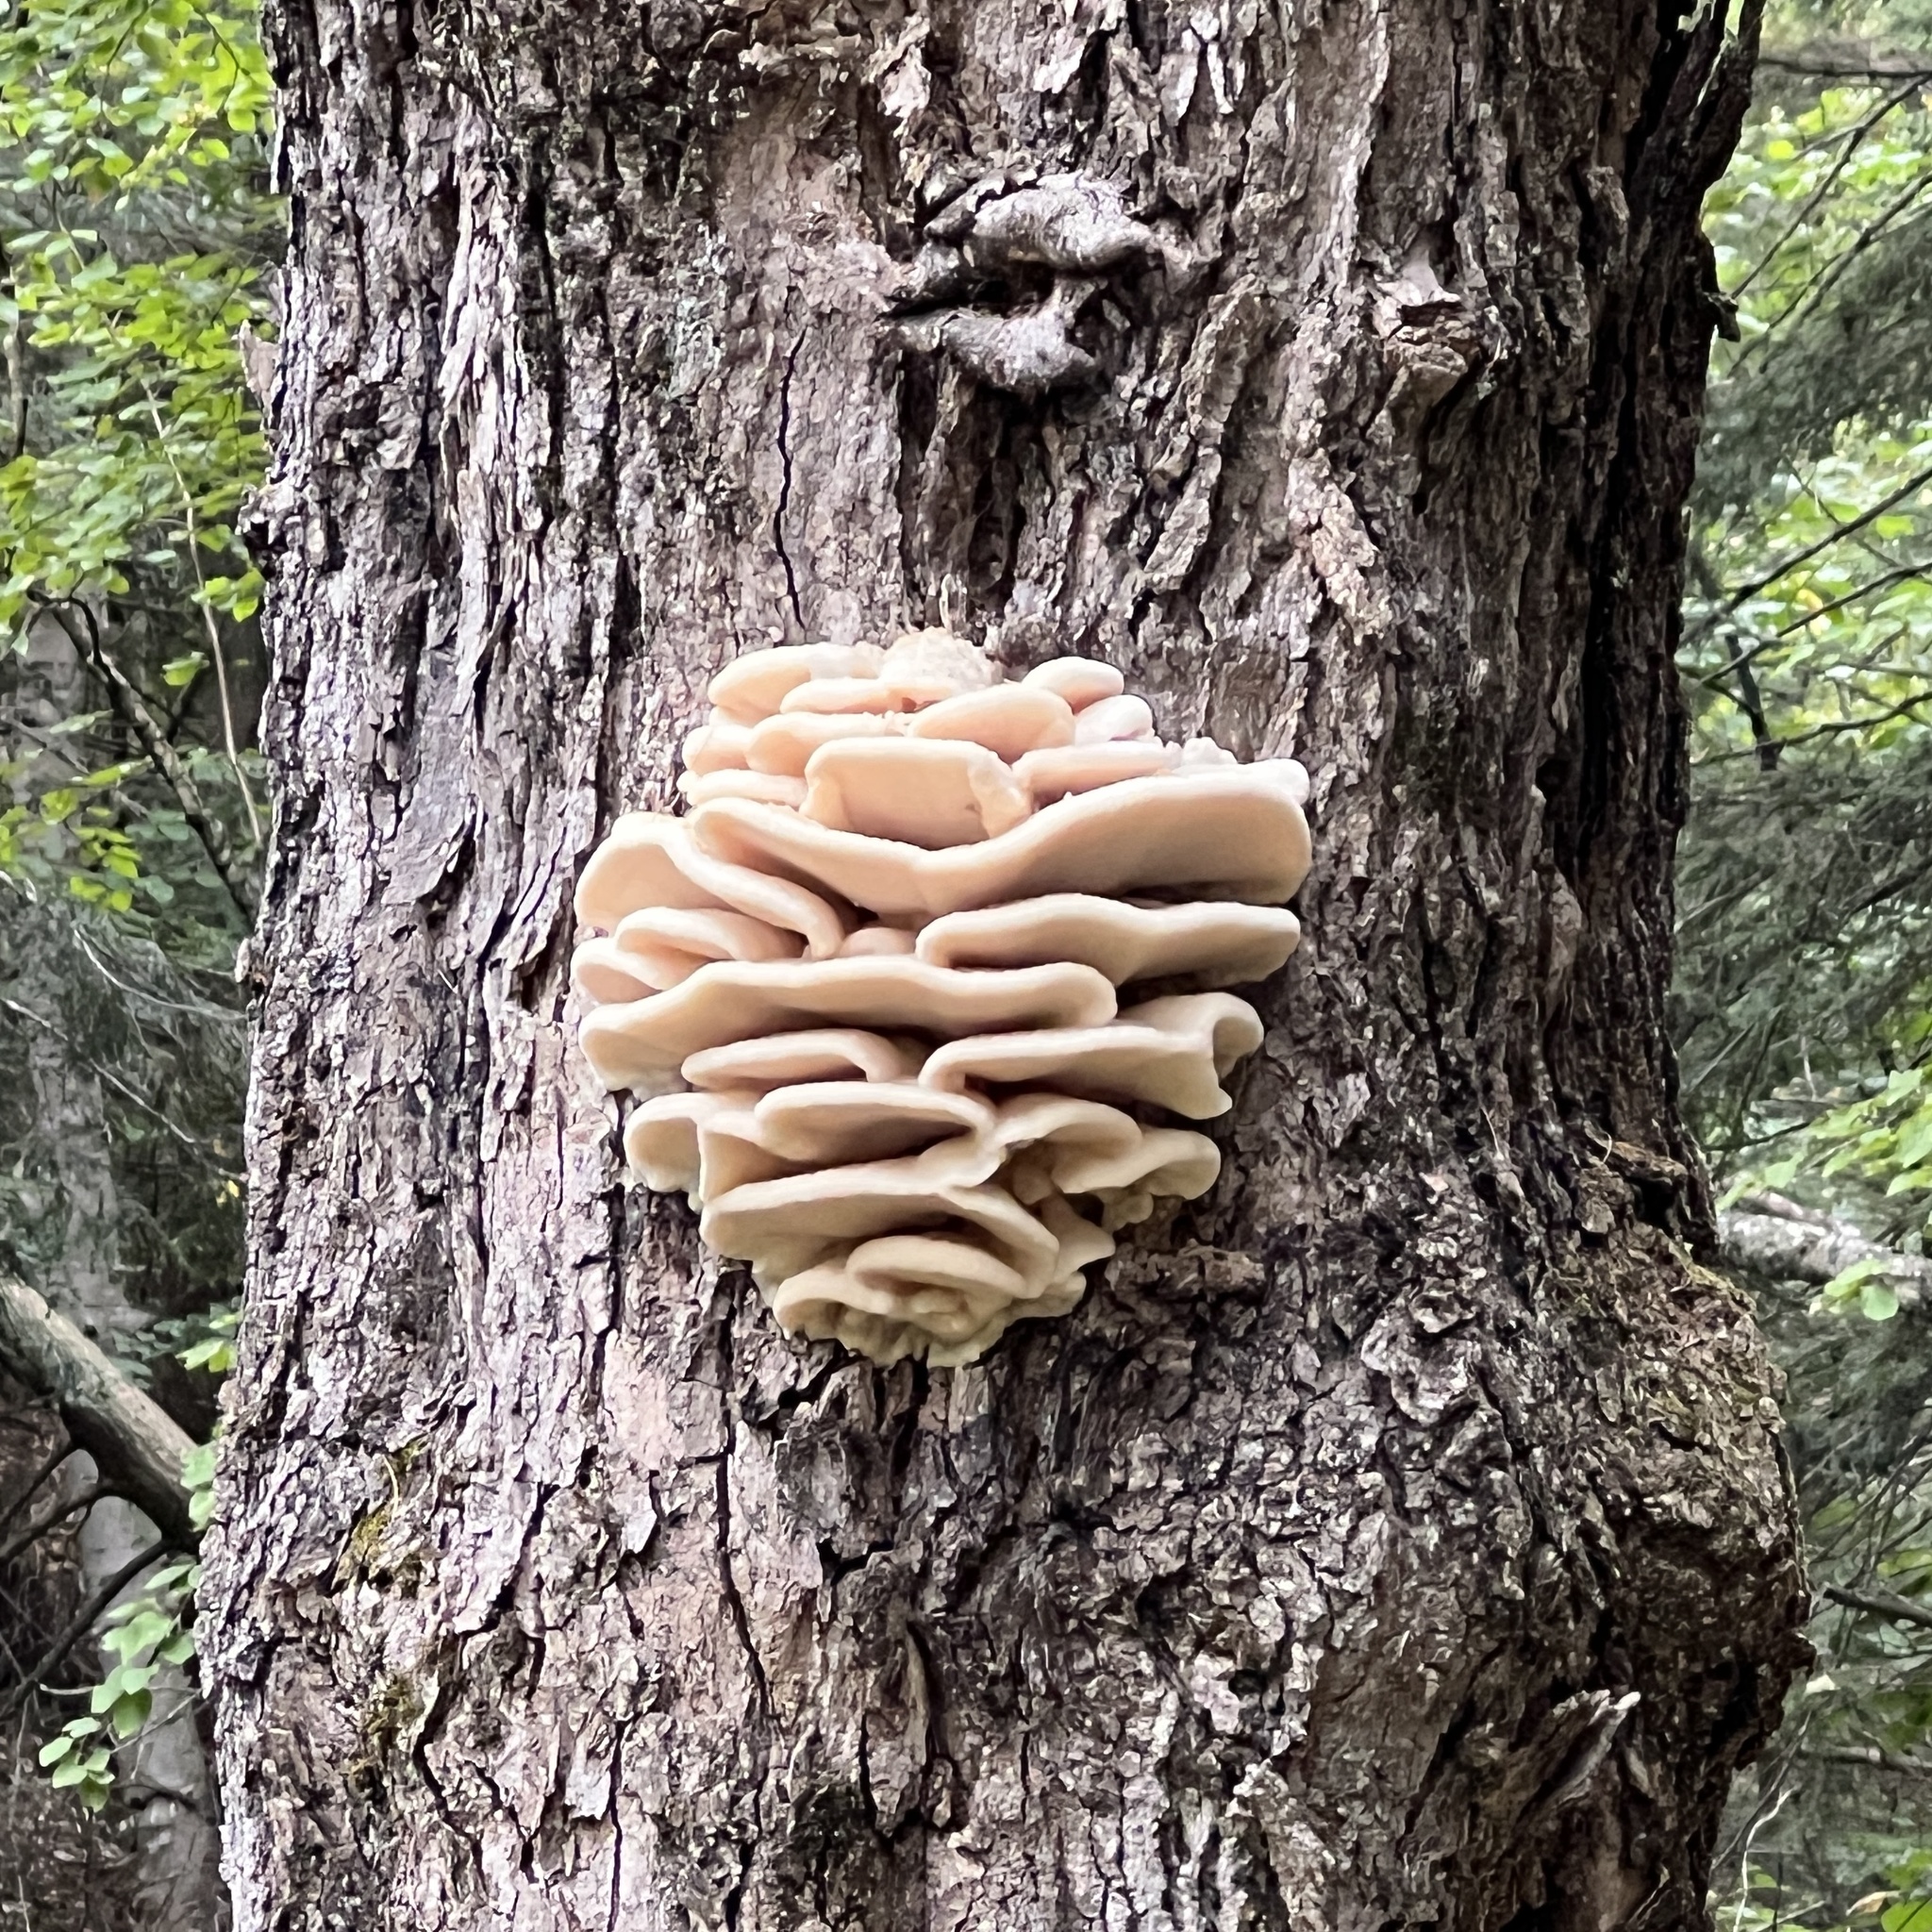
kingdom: Fungi
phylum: Basidiomycota
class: Agaricomycetes
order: Polyporales
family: Meruliaceae
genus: Climacodon
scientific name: Climacodon septentrionalis
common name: Northern tooth
